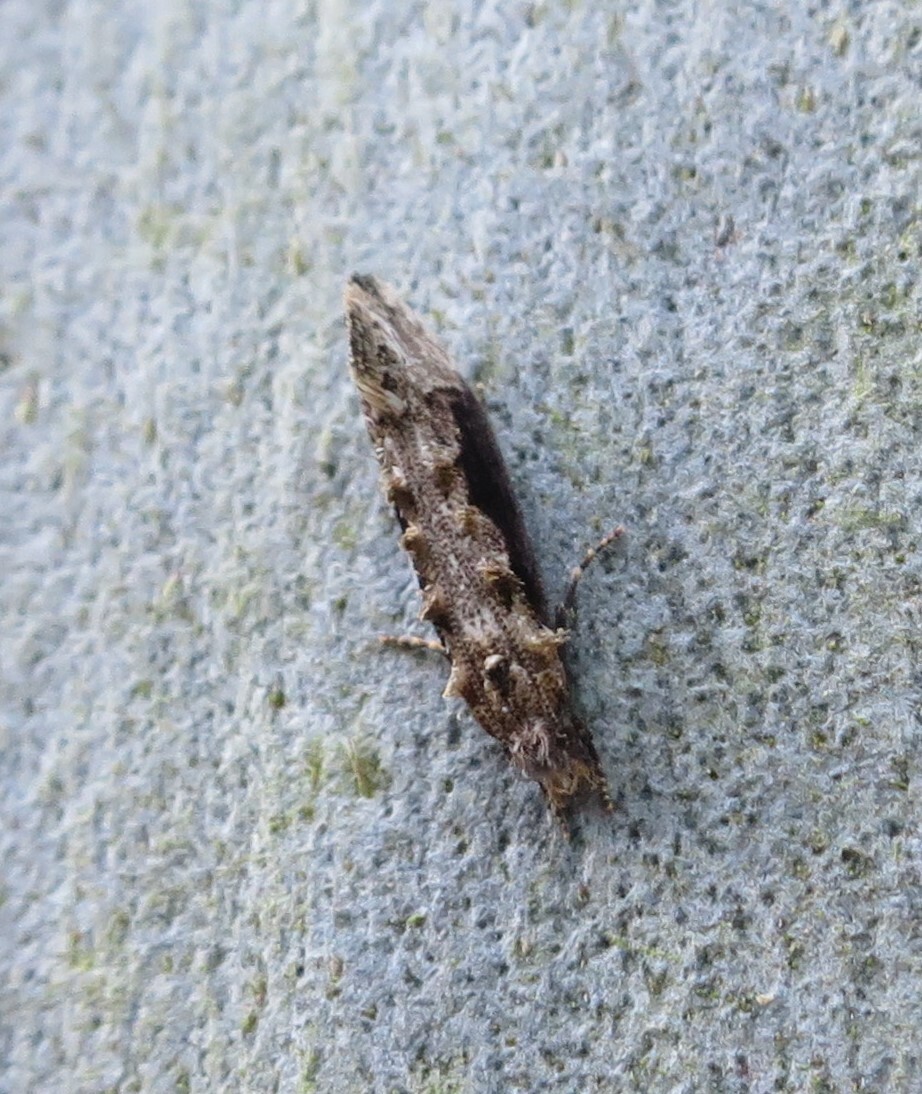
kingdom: Animalia
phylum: Arthropoda
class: Insecta
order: Lepidoptera
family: Tineidae
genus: Trithamnora
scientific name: Trithamnora certella
